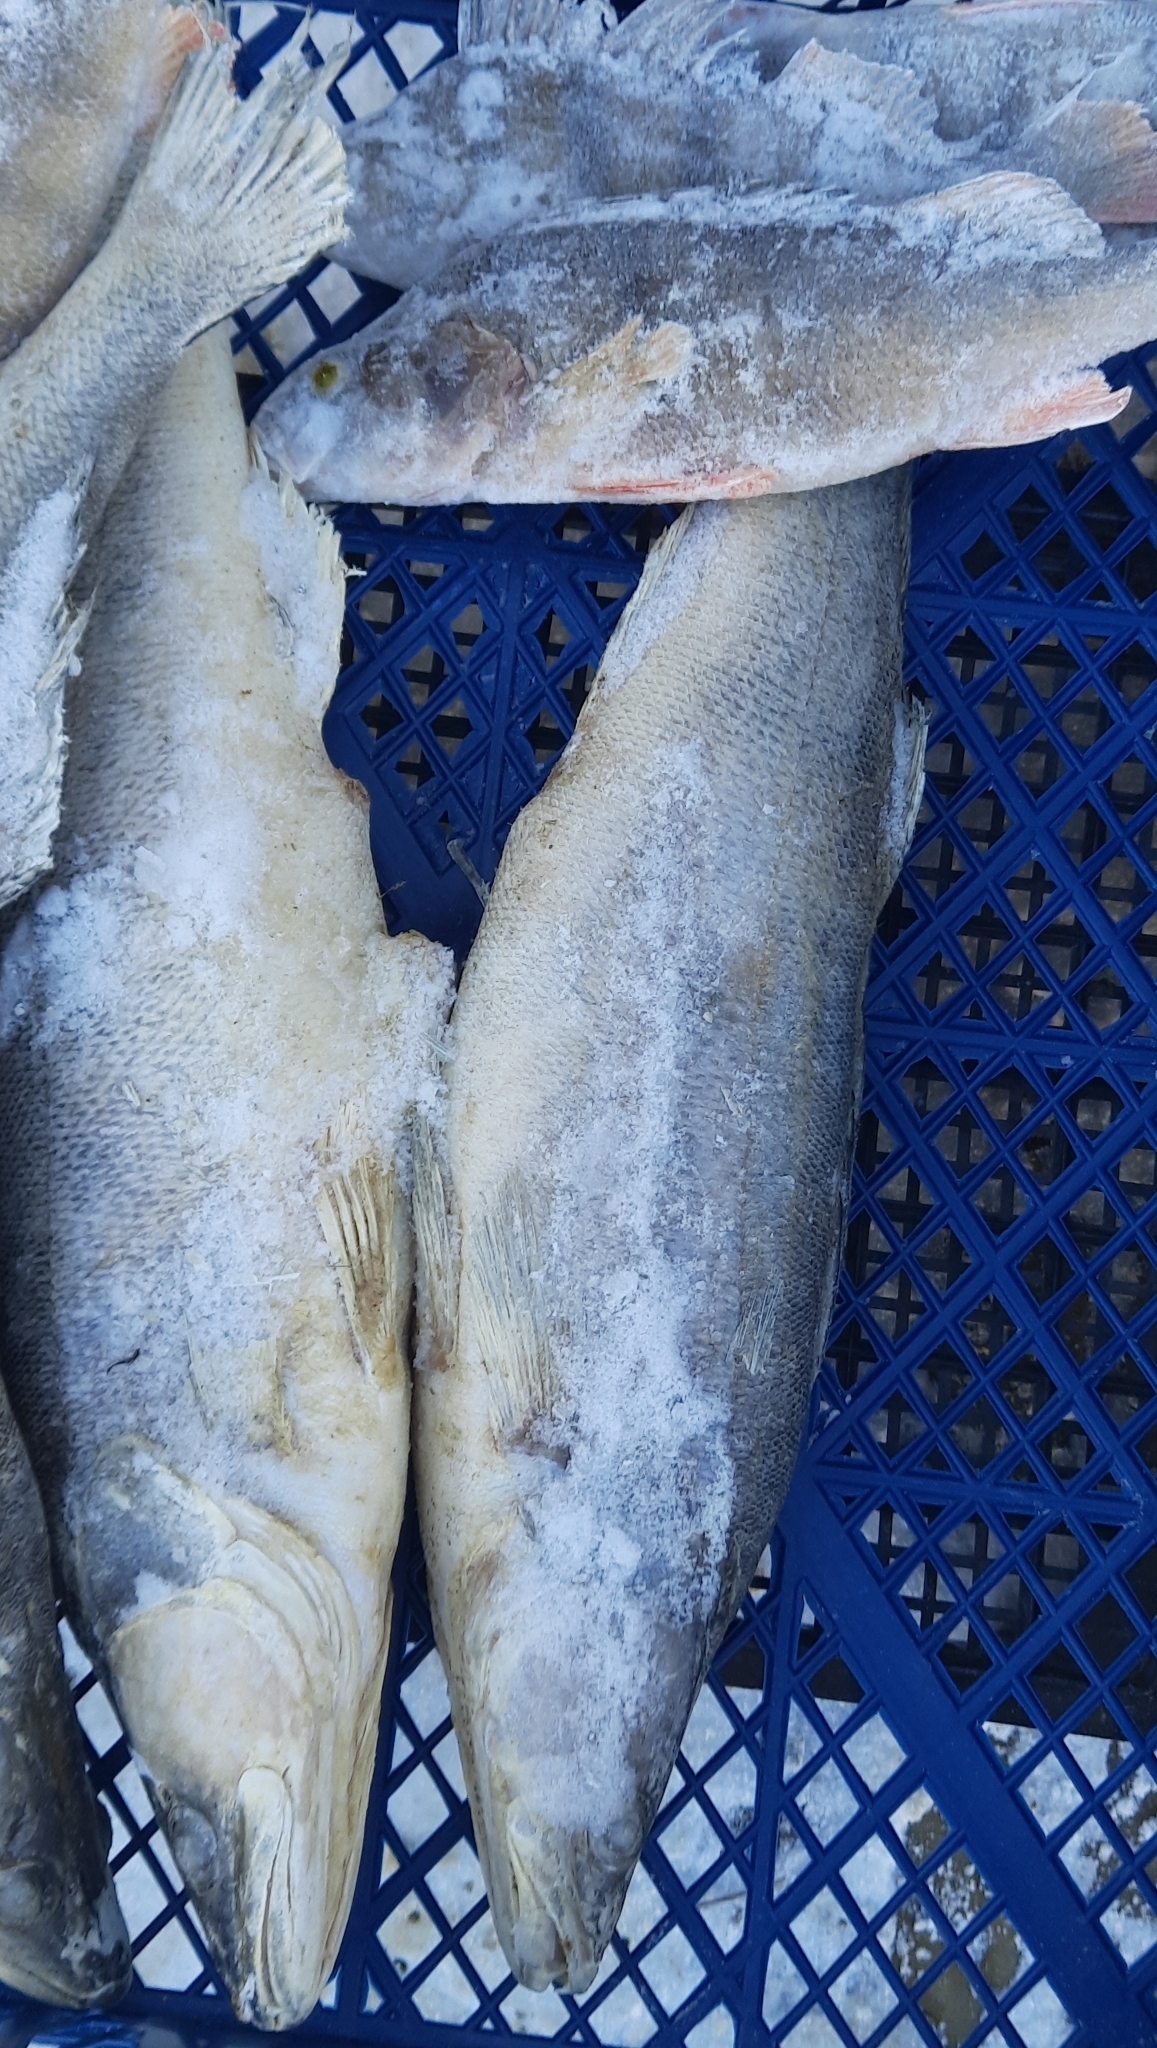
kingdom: Animalia
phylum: Chordata
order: Perciformes
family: Percidae
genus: Sander
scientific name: Sander lucioperca
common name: Pikeperch
